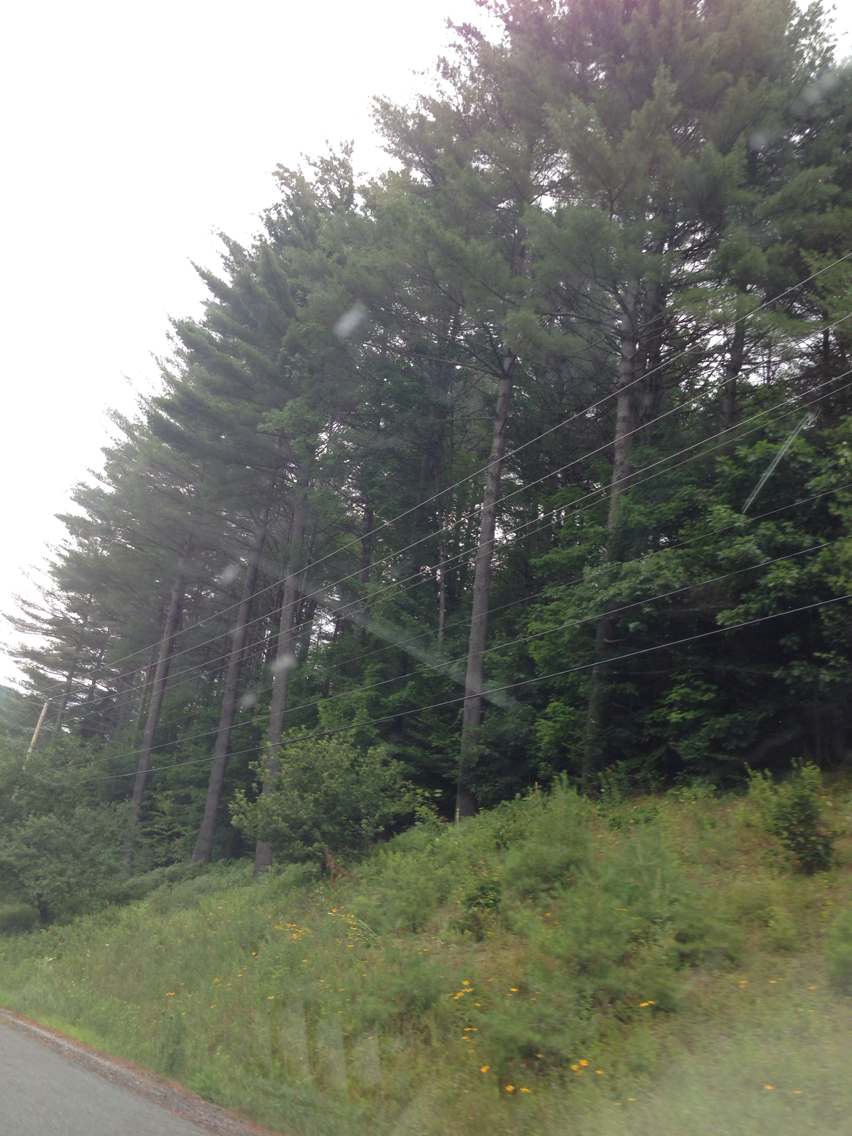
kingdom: Plantae
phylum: Tracheophyta
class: Pinopsida
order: Pinales
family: Pinaceae
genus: Pinus
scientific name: Pinus strobus
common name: Weymouth pine
